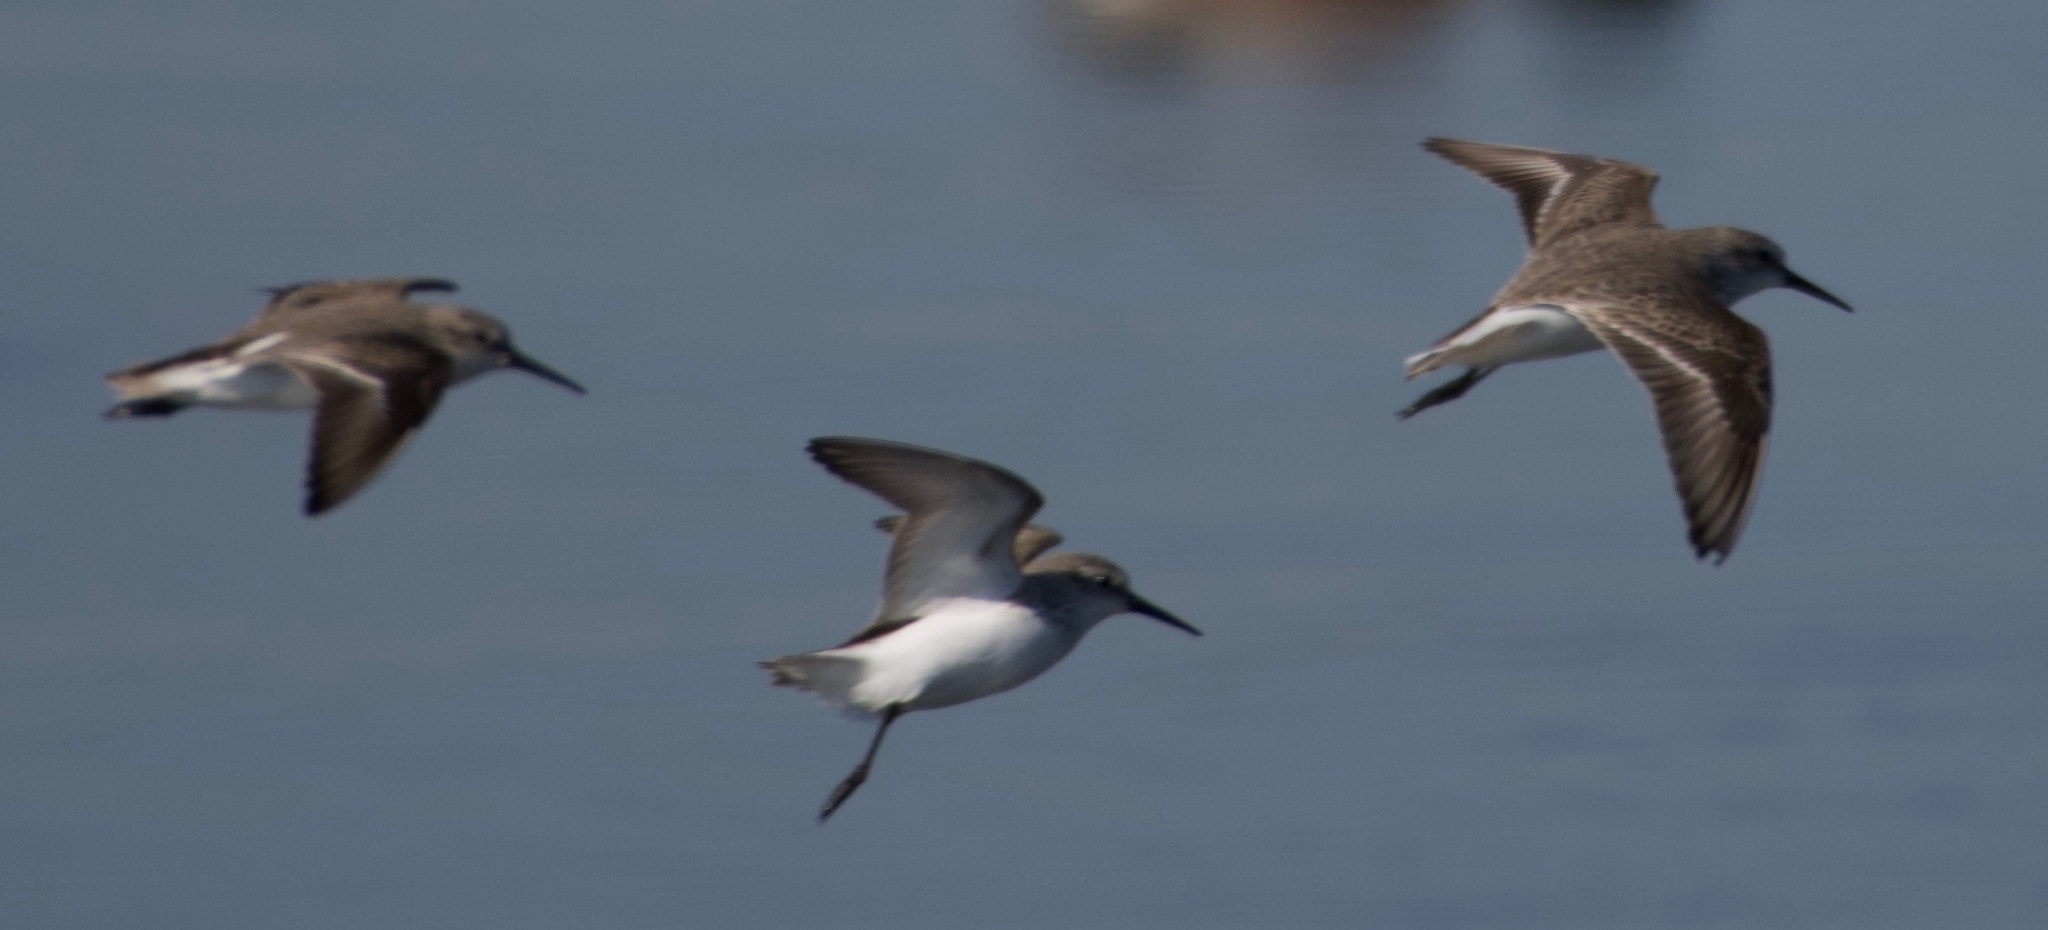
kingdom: Animalia
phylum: Chordata
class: Aves
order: Charadriiformes
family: Scolopacidae
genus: Calidris
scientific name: Calidris mauri
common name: Western sandpiper
